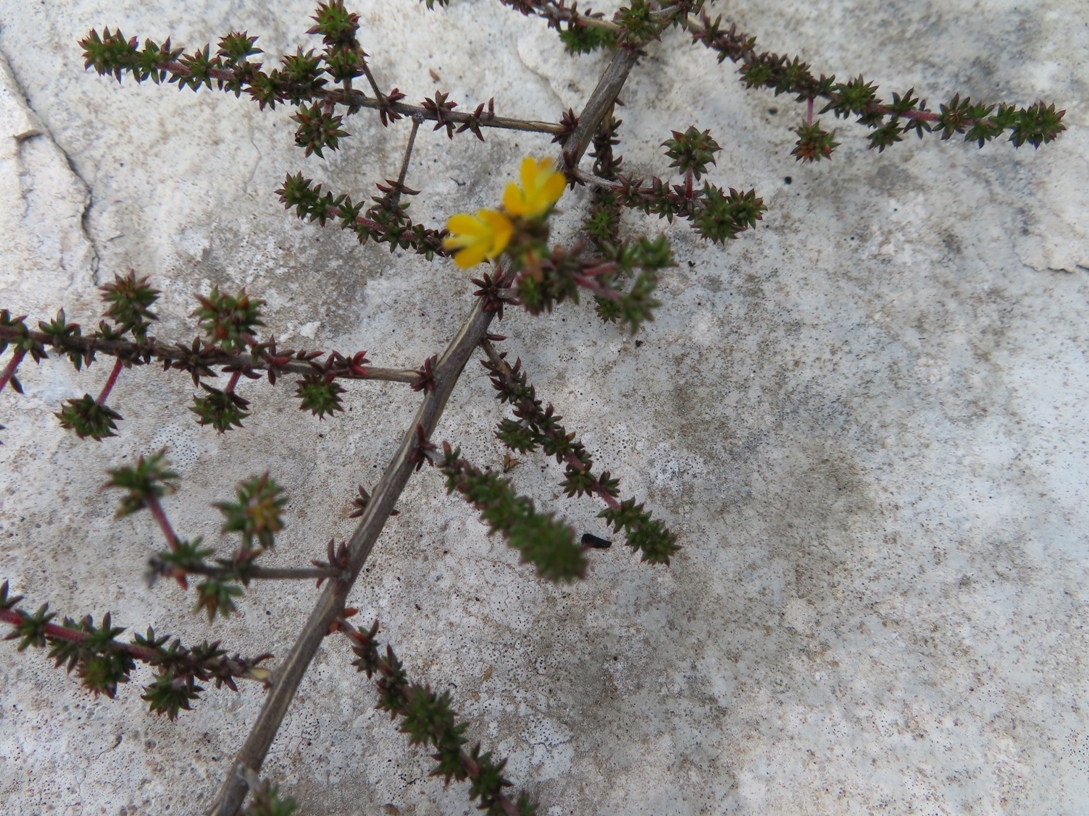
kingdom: Plantae
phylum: Tracheophyta
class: Magnoliopsida
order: Fabales
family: Fabaceae
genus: Aspalathus
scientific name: Aspalathus crassisepala
